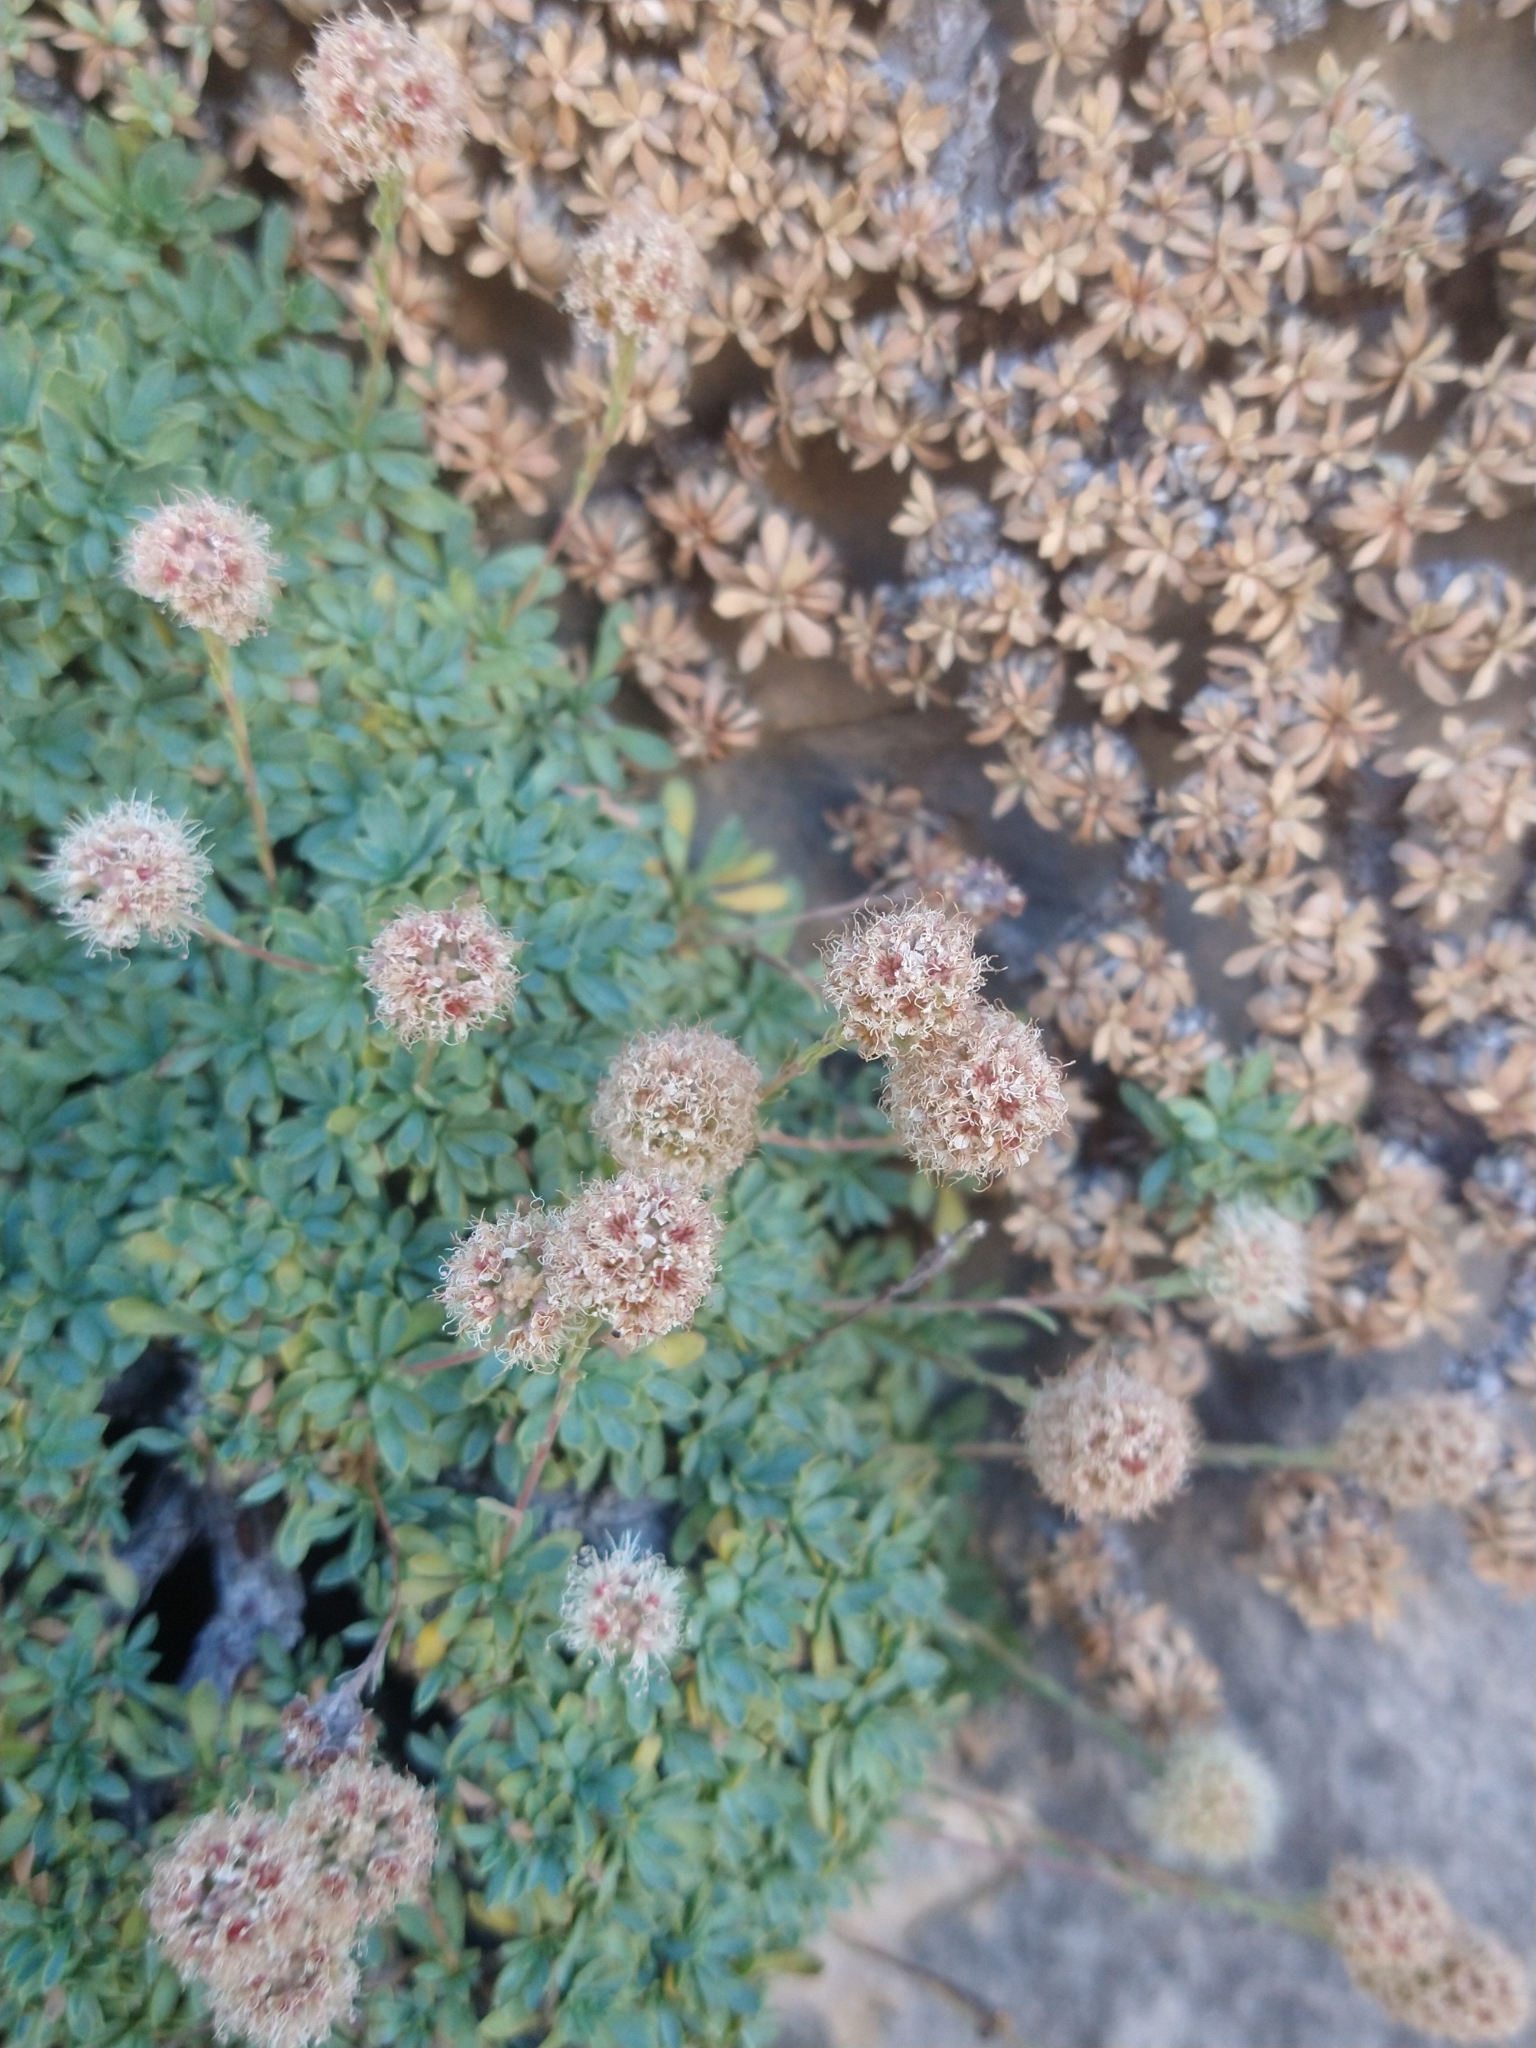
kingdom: Plantae
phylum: Tracheophyta
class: Magnoliopsida
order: Rosales
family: Rosaceae
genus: Petrophytum
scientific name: Petrophytum caespitosum
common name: Mat rockspirea
